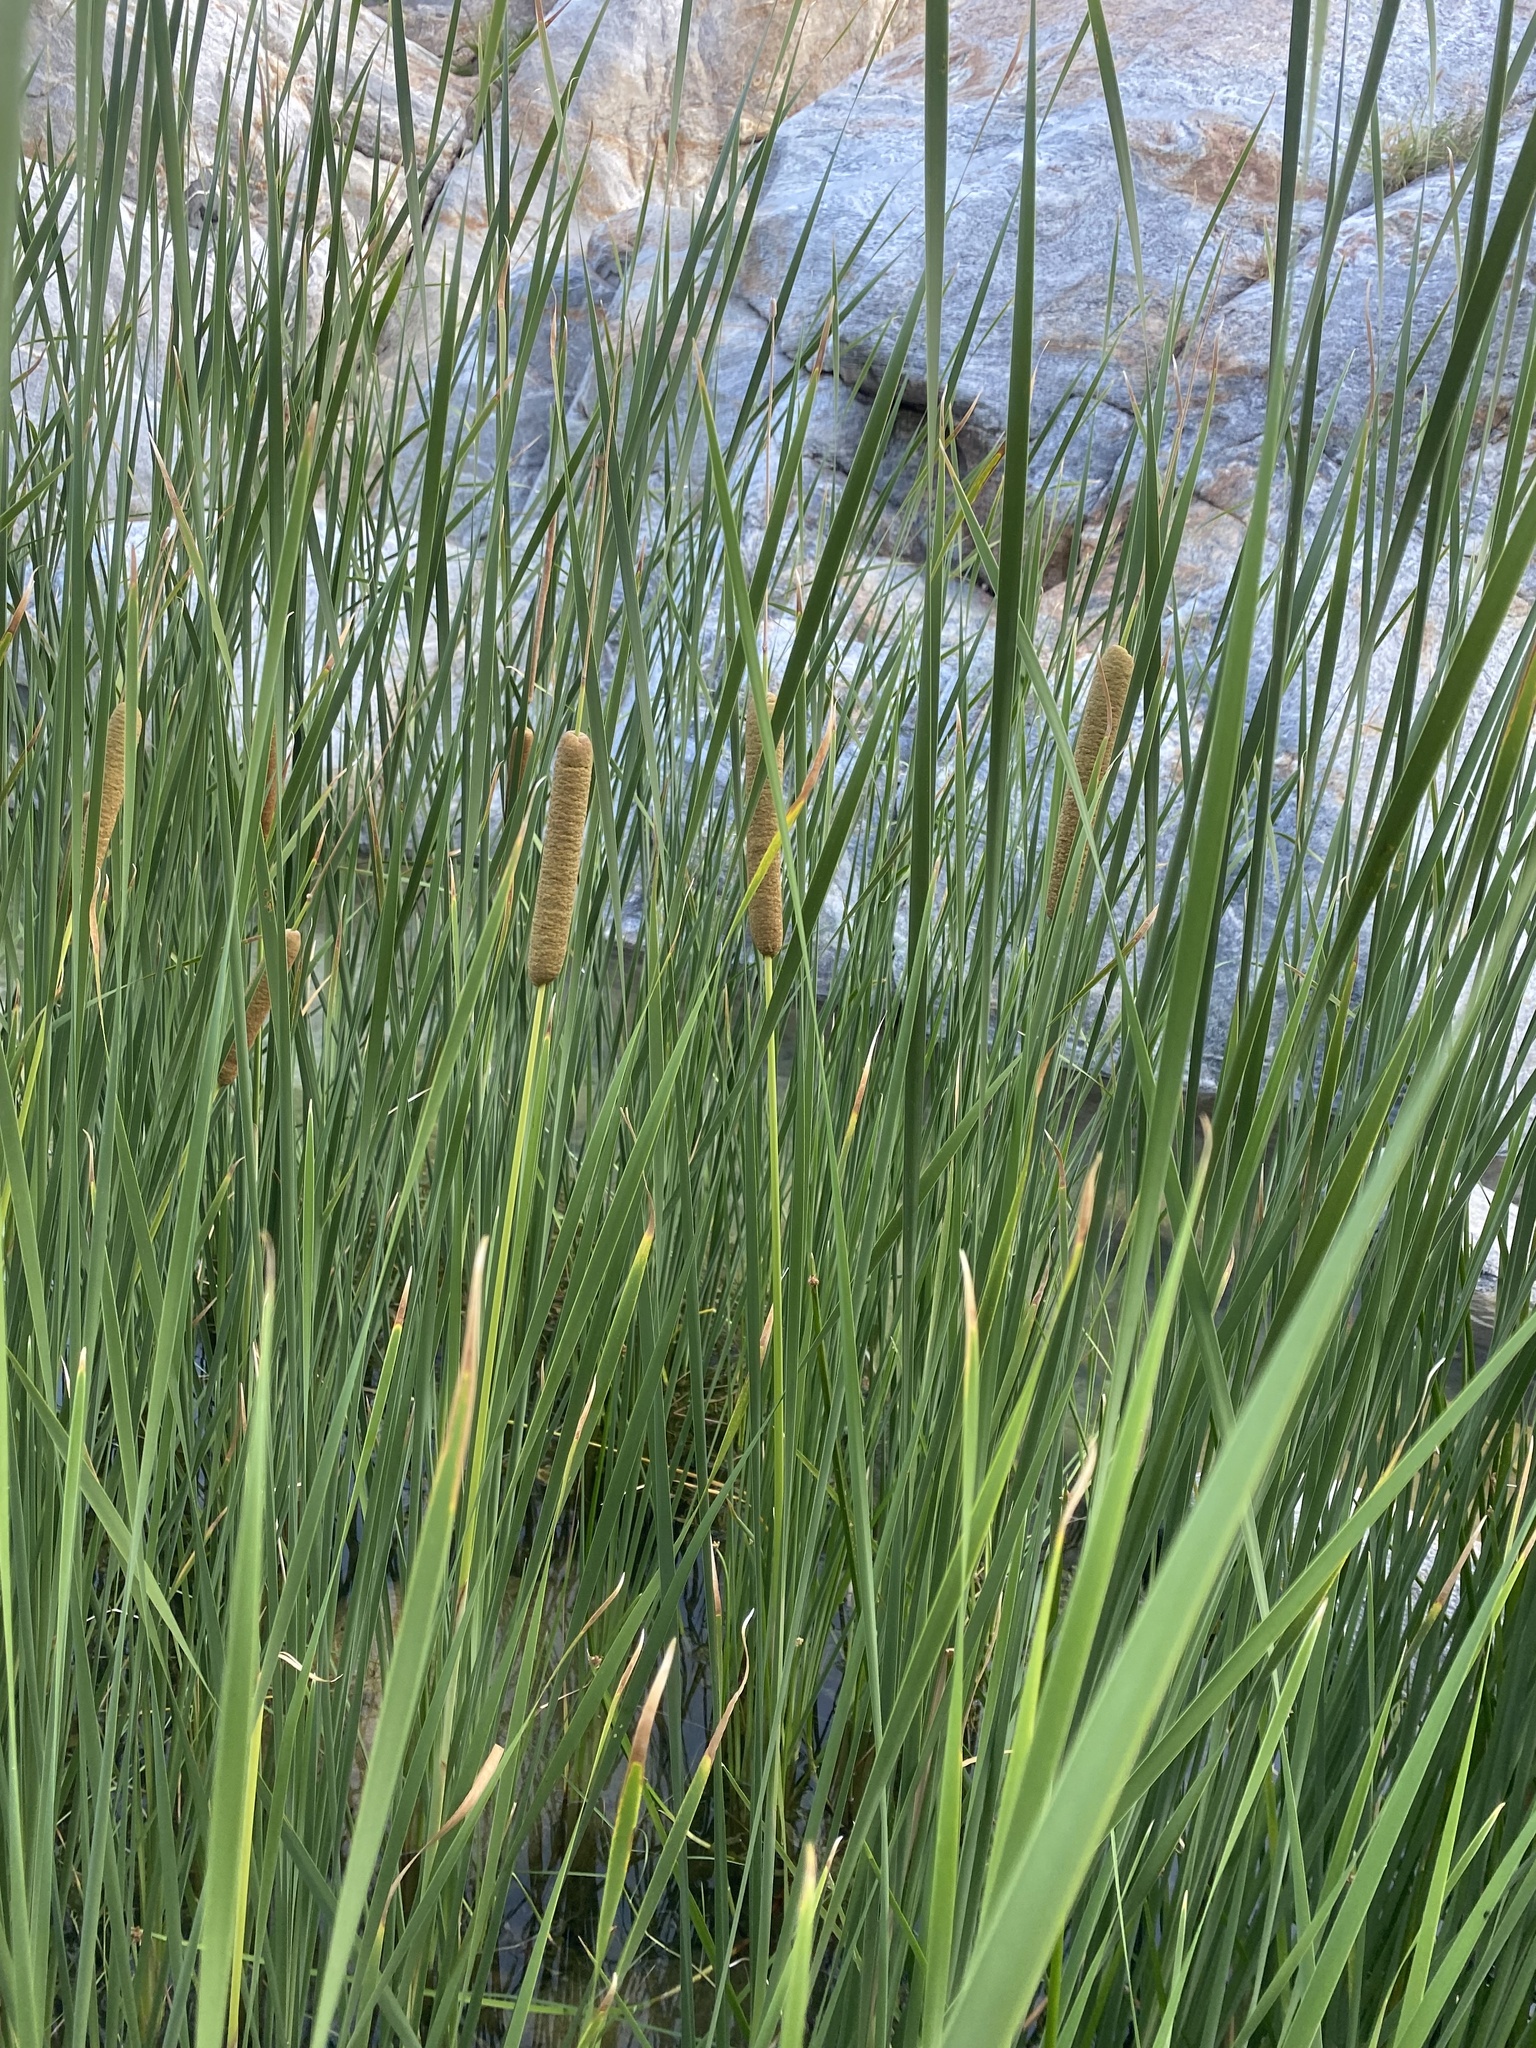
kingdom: Plantae
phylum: Tracheophyta
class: Liliopsida
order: Poales
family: Typhaceae
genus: Typha
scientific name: Typha domingensis
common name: Southern cattail
